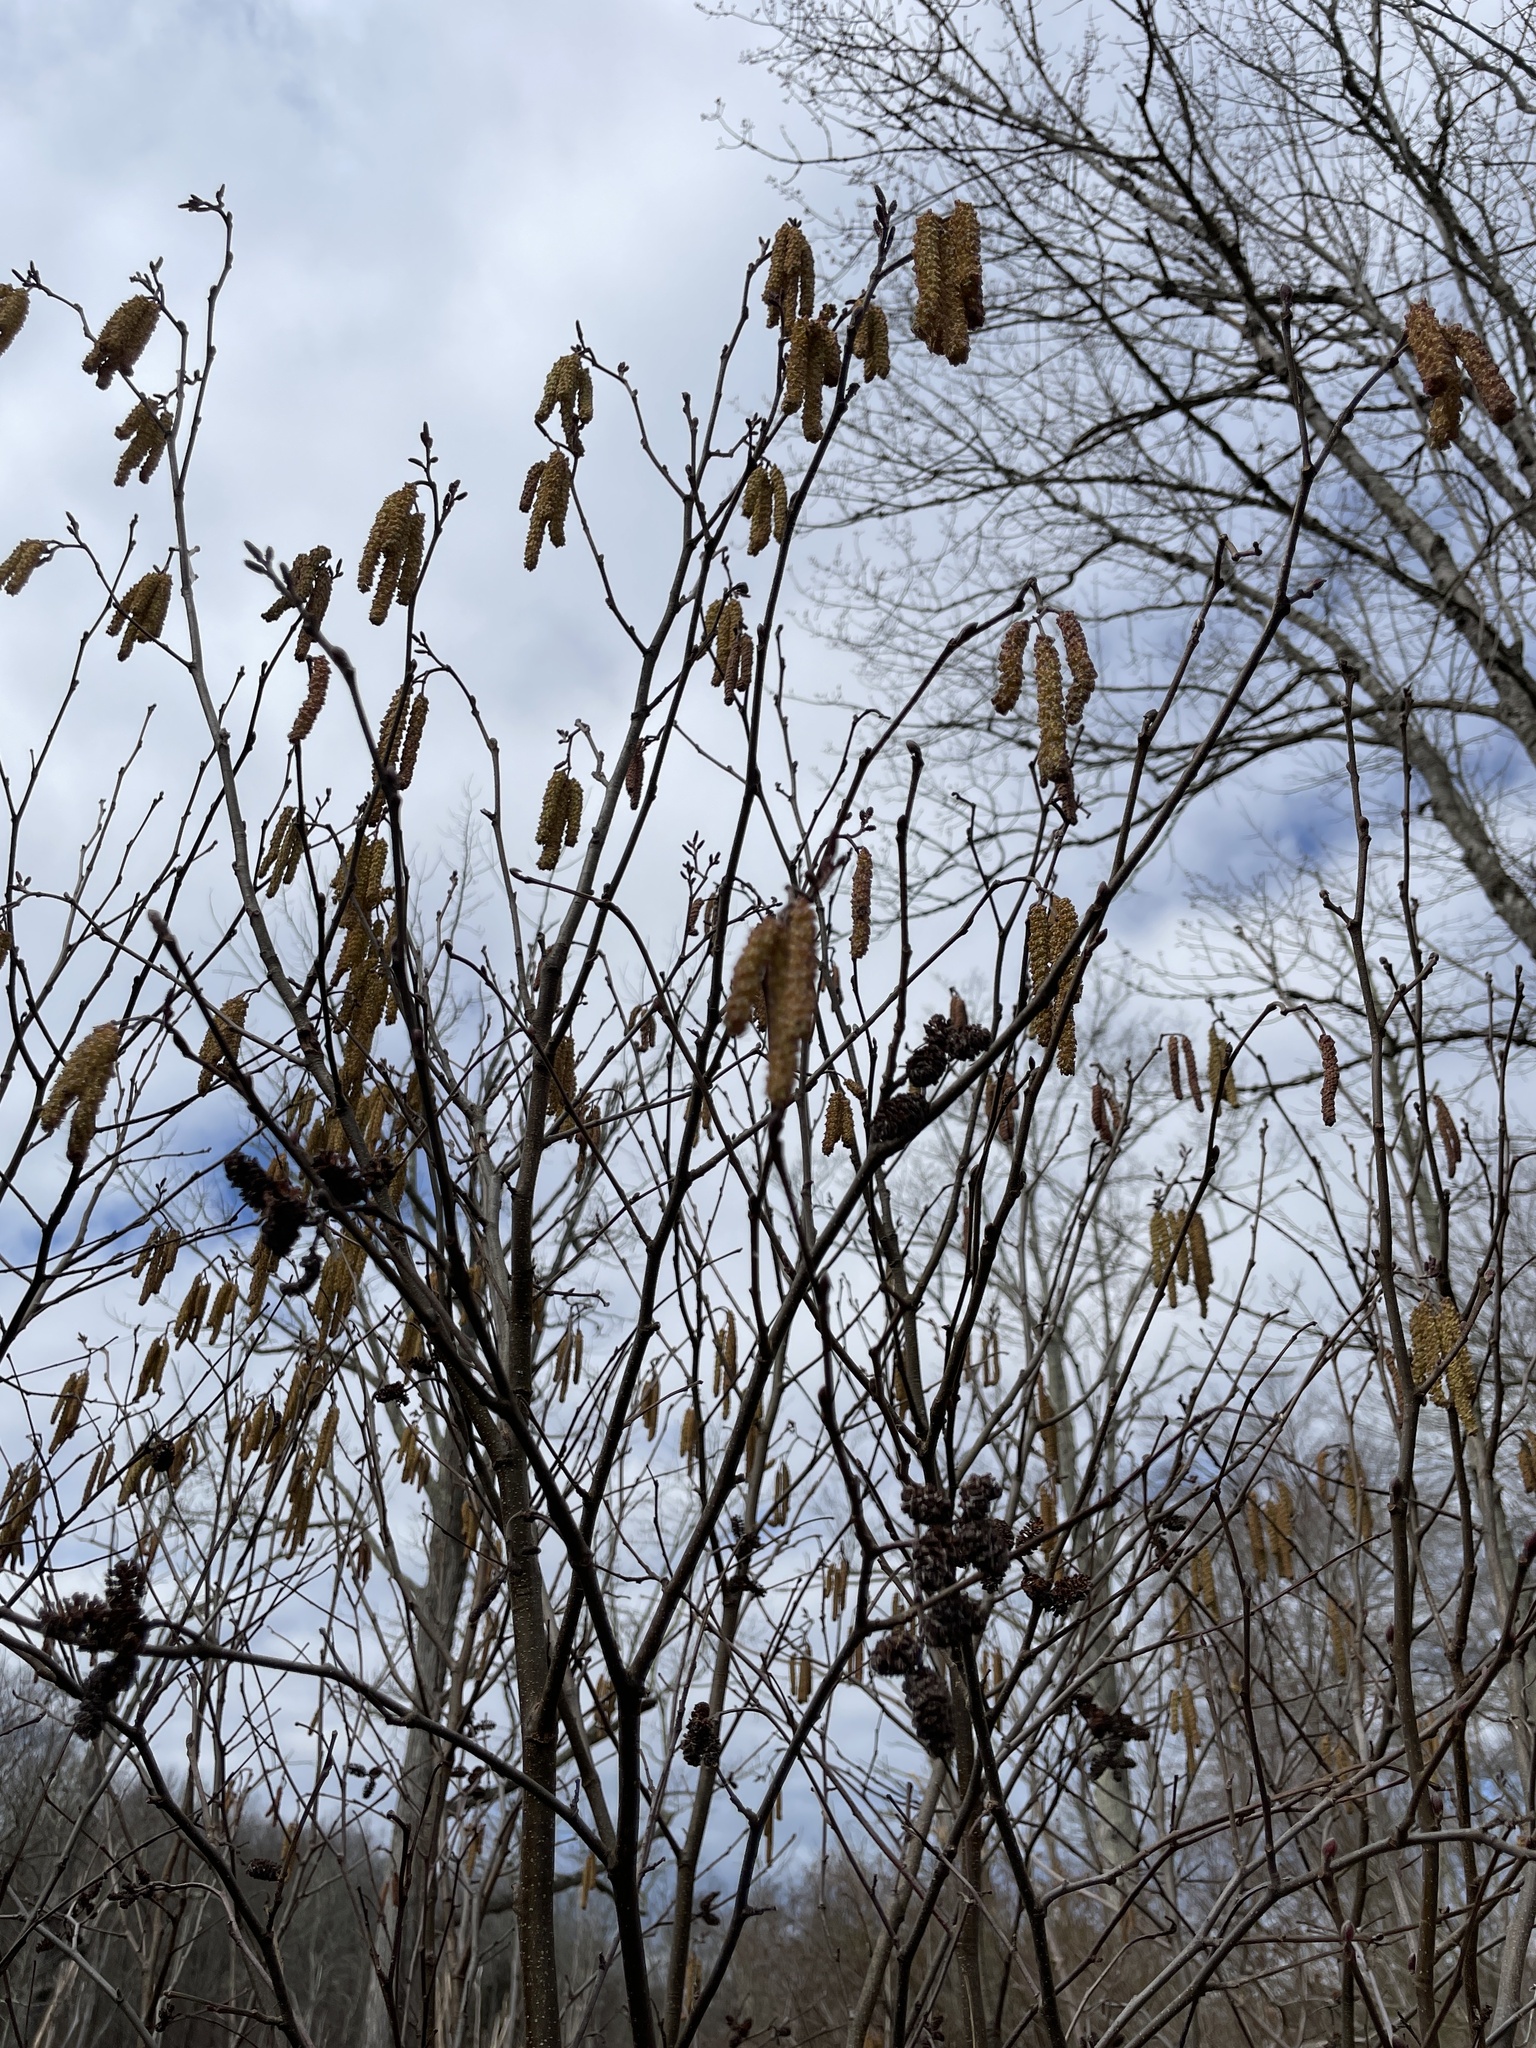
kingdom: Plantae
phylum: Tracheophyta
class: Magnoliopsida
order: Fagales
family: Betulaceae
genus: Alnus
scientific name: Alnus serrulata
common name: Hazel alder
